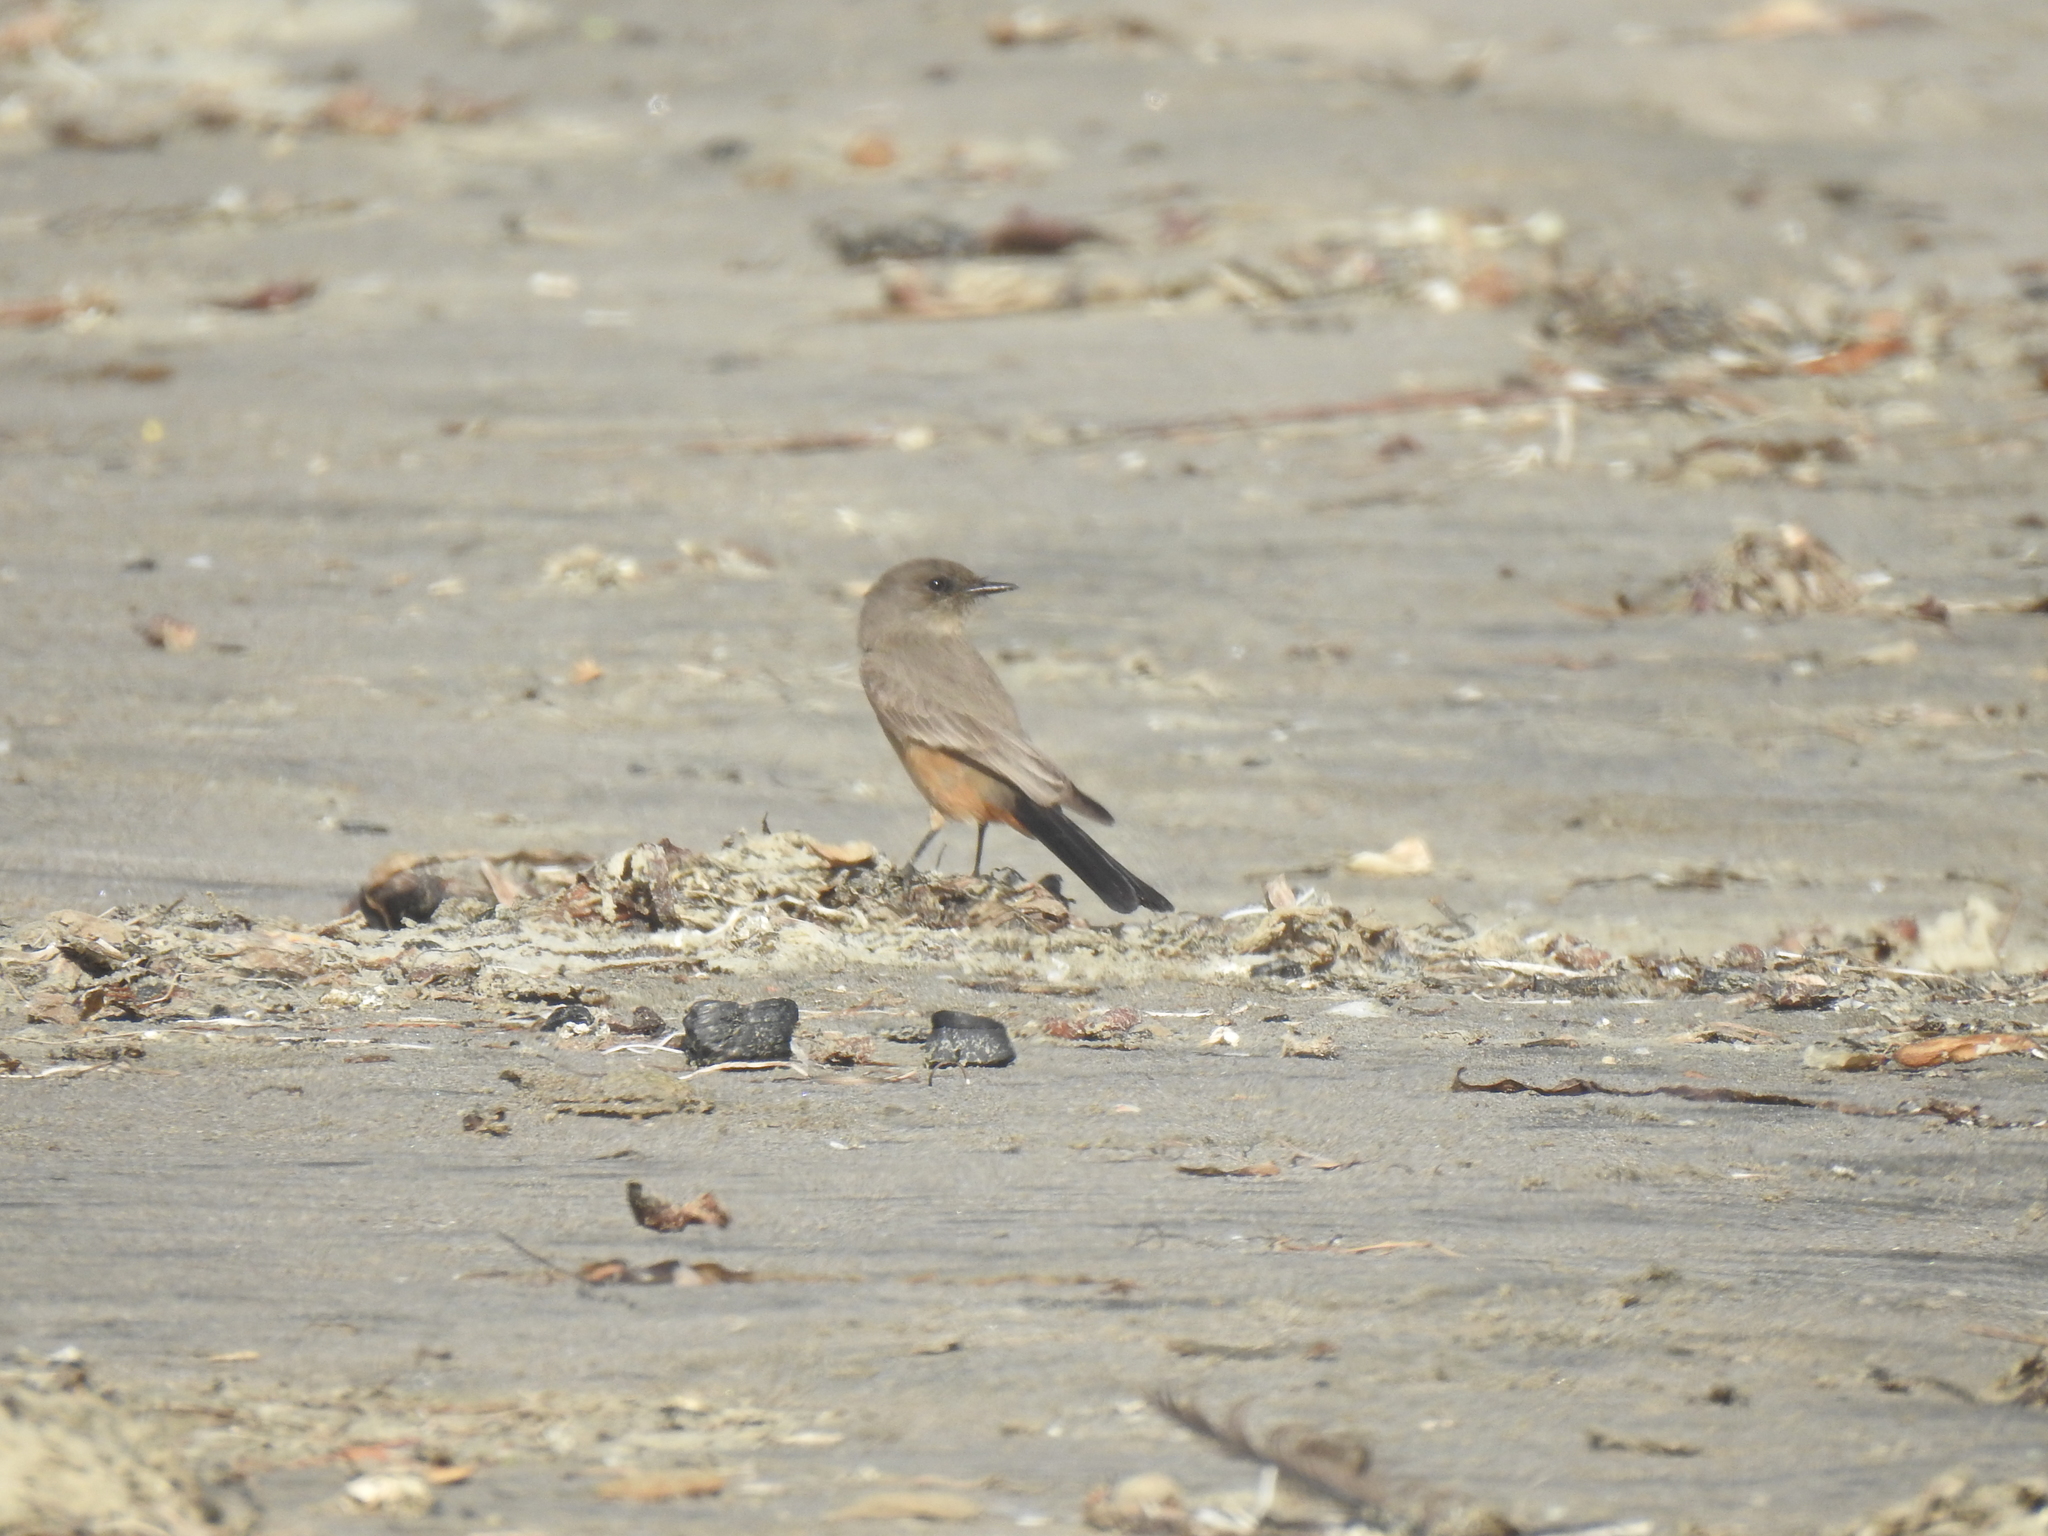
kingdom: Animalia
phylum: Chordata
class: Aves
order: Passeriformes
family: Tyrannidae
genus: Sayornis
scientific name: Sayornis saya
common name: Say's phoebe
